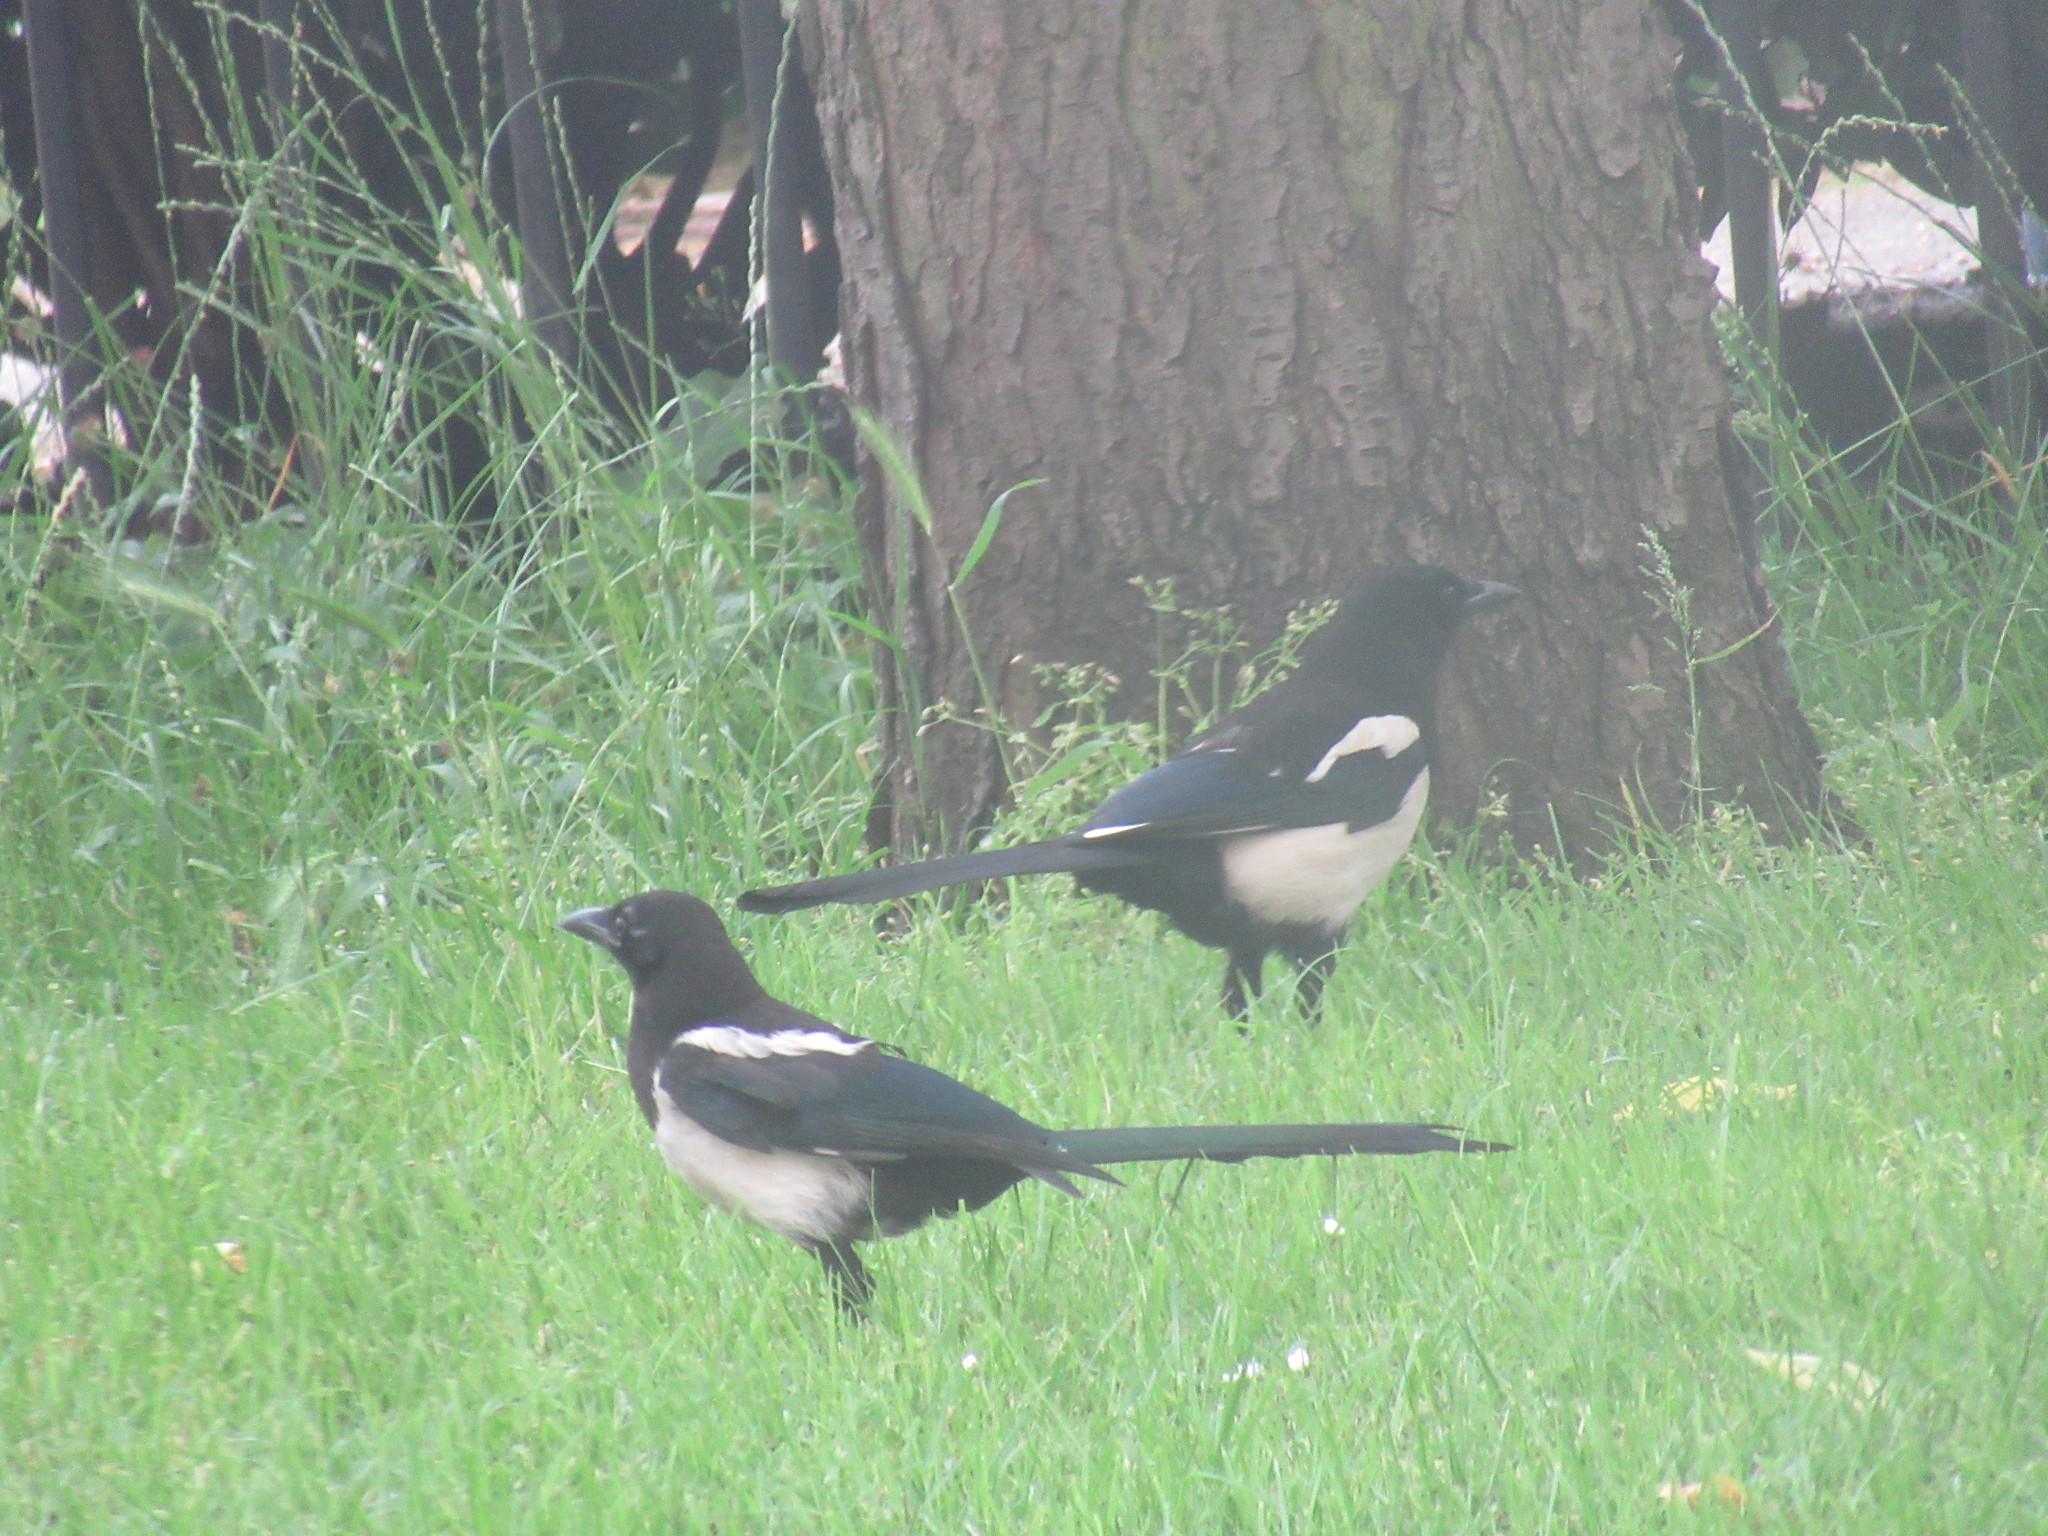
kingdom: Animalia
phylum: Chordata
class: Aves
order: Passeriformes
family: Corvidae
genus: Pica
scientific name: Pica pica
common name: Eurasian magpie
